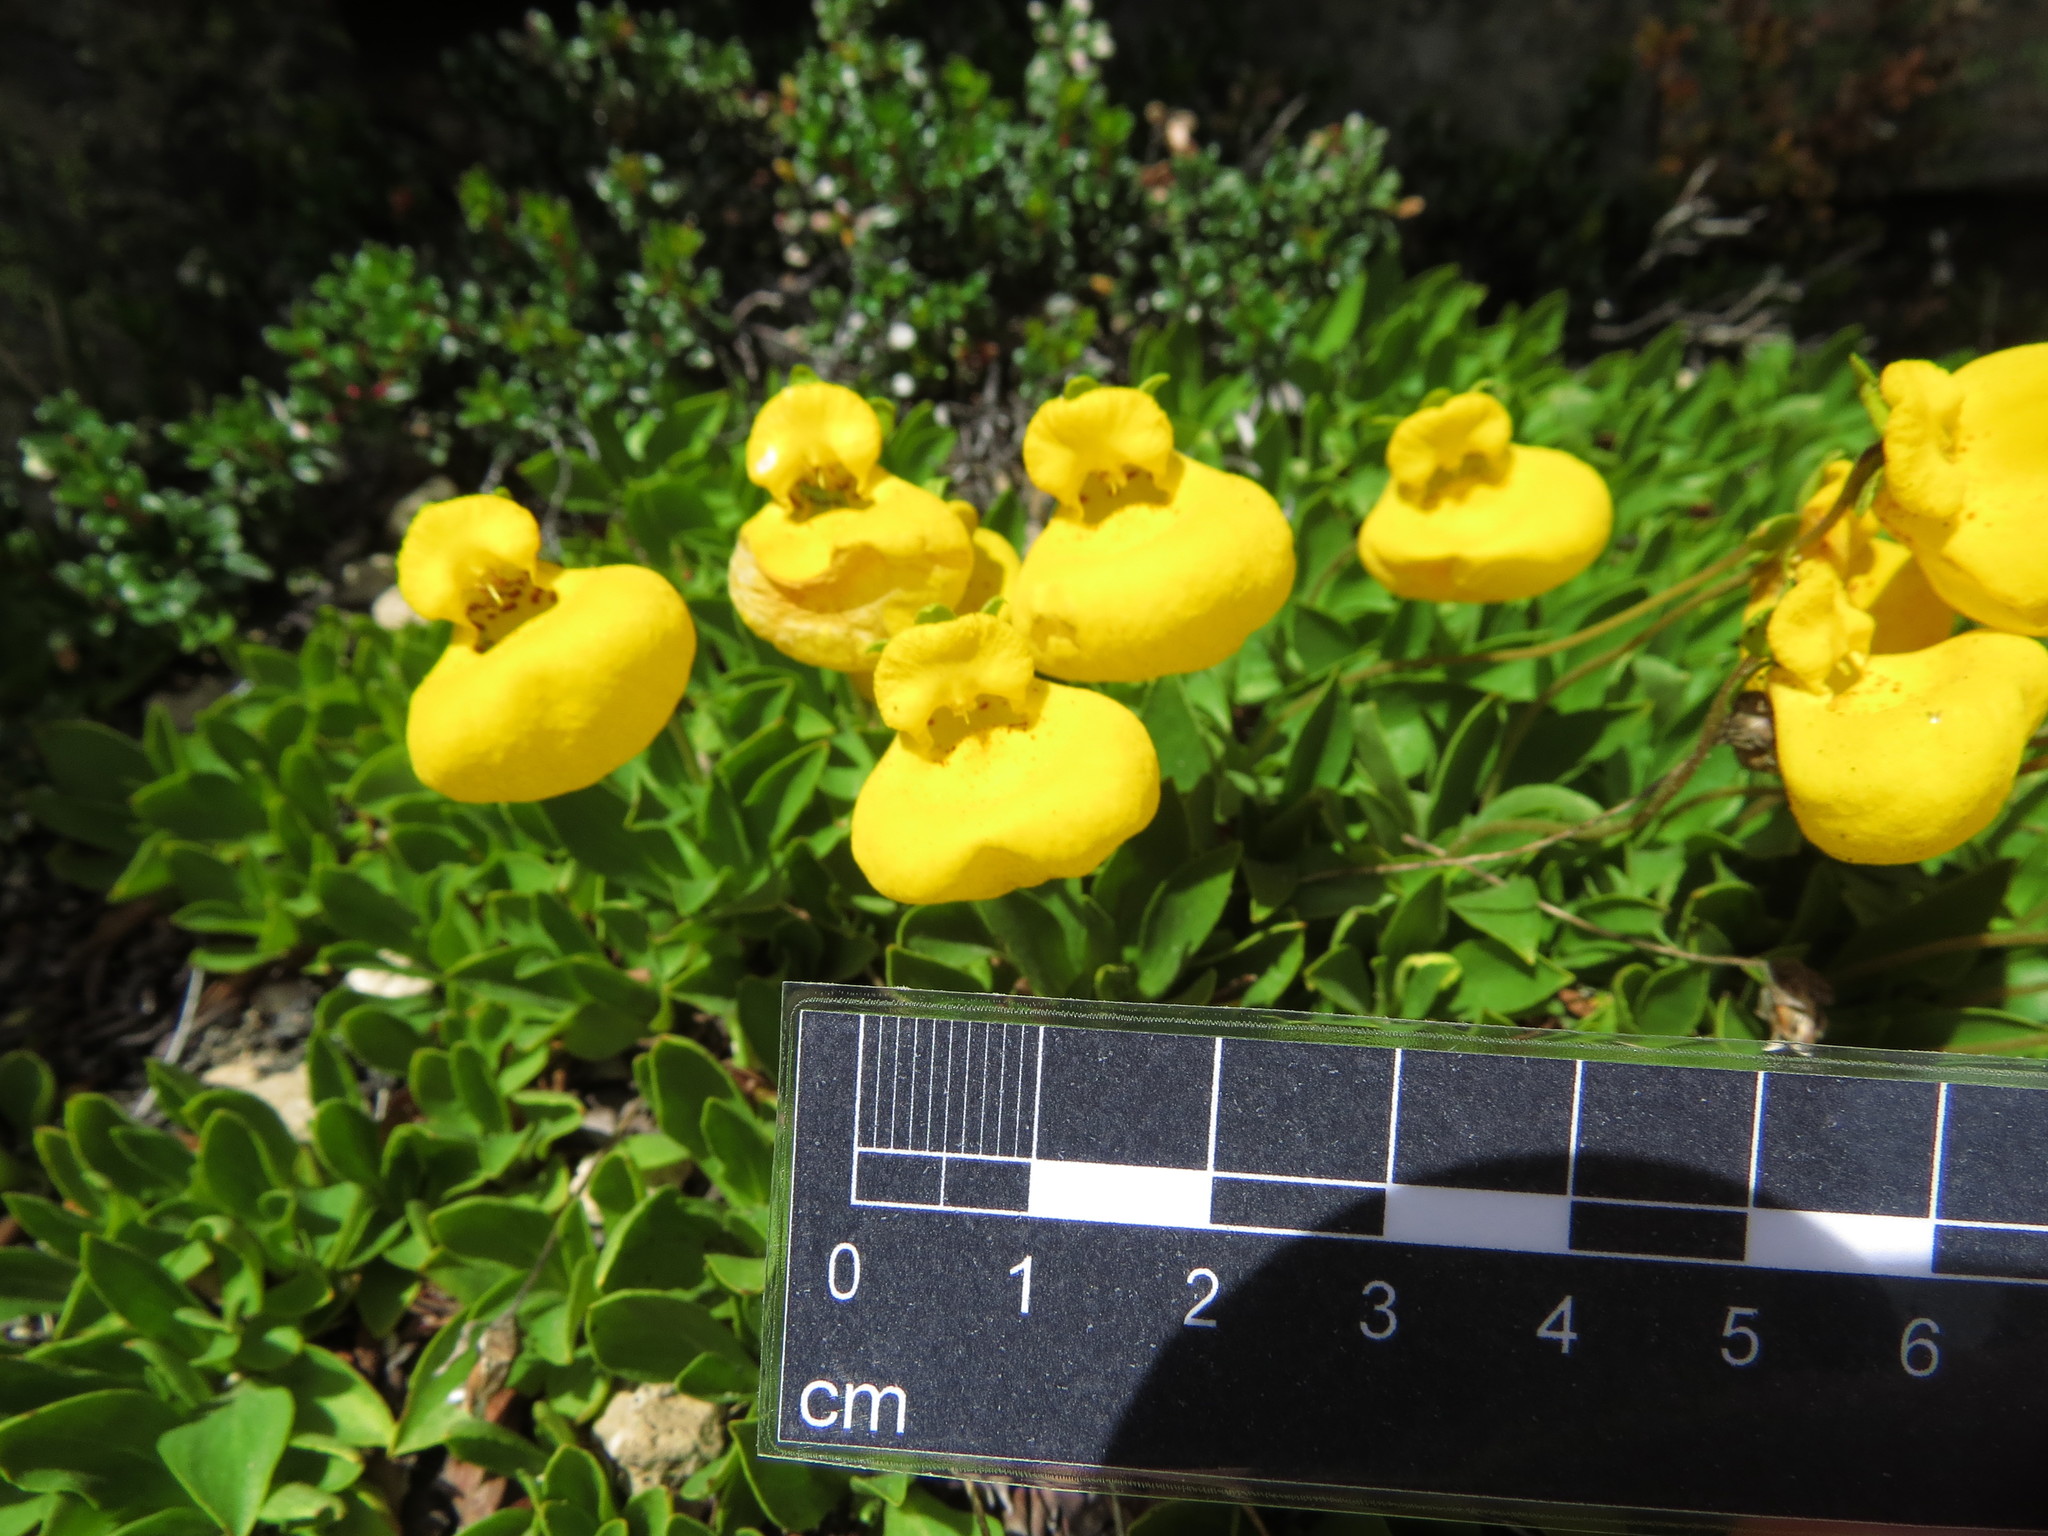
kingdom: Plantae
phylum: Tracheophyta
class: Magnoliopsida
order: Lamiales
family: Calceolariaceae
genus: Calceolaria
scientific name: Calceolaria pennellii
